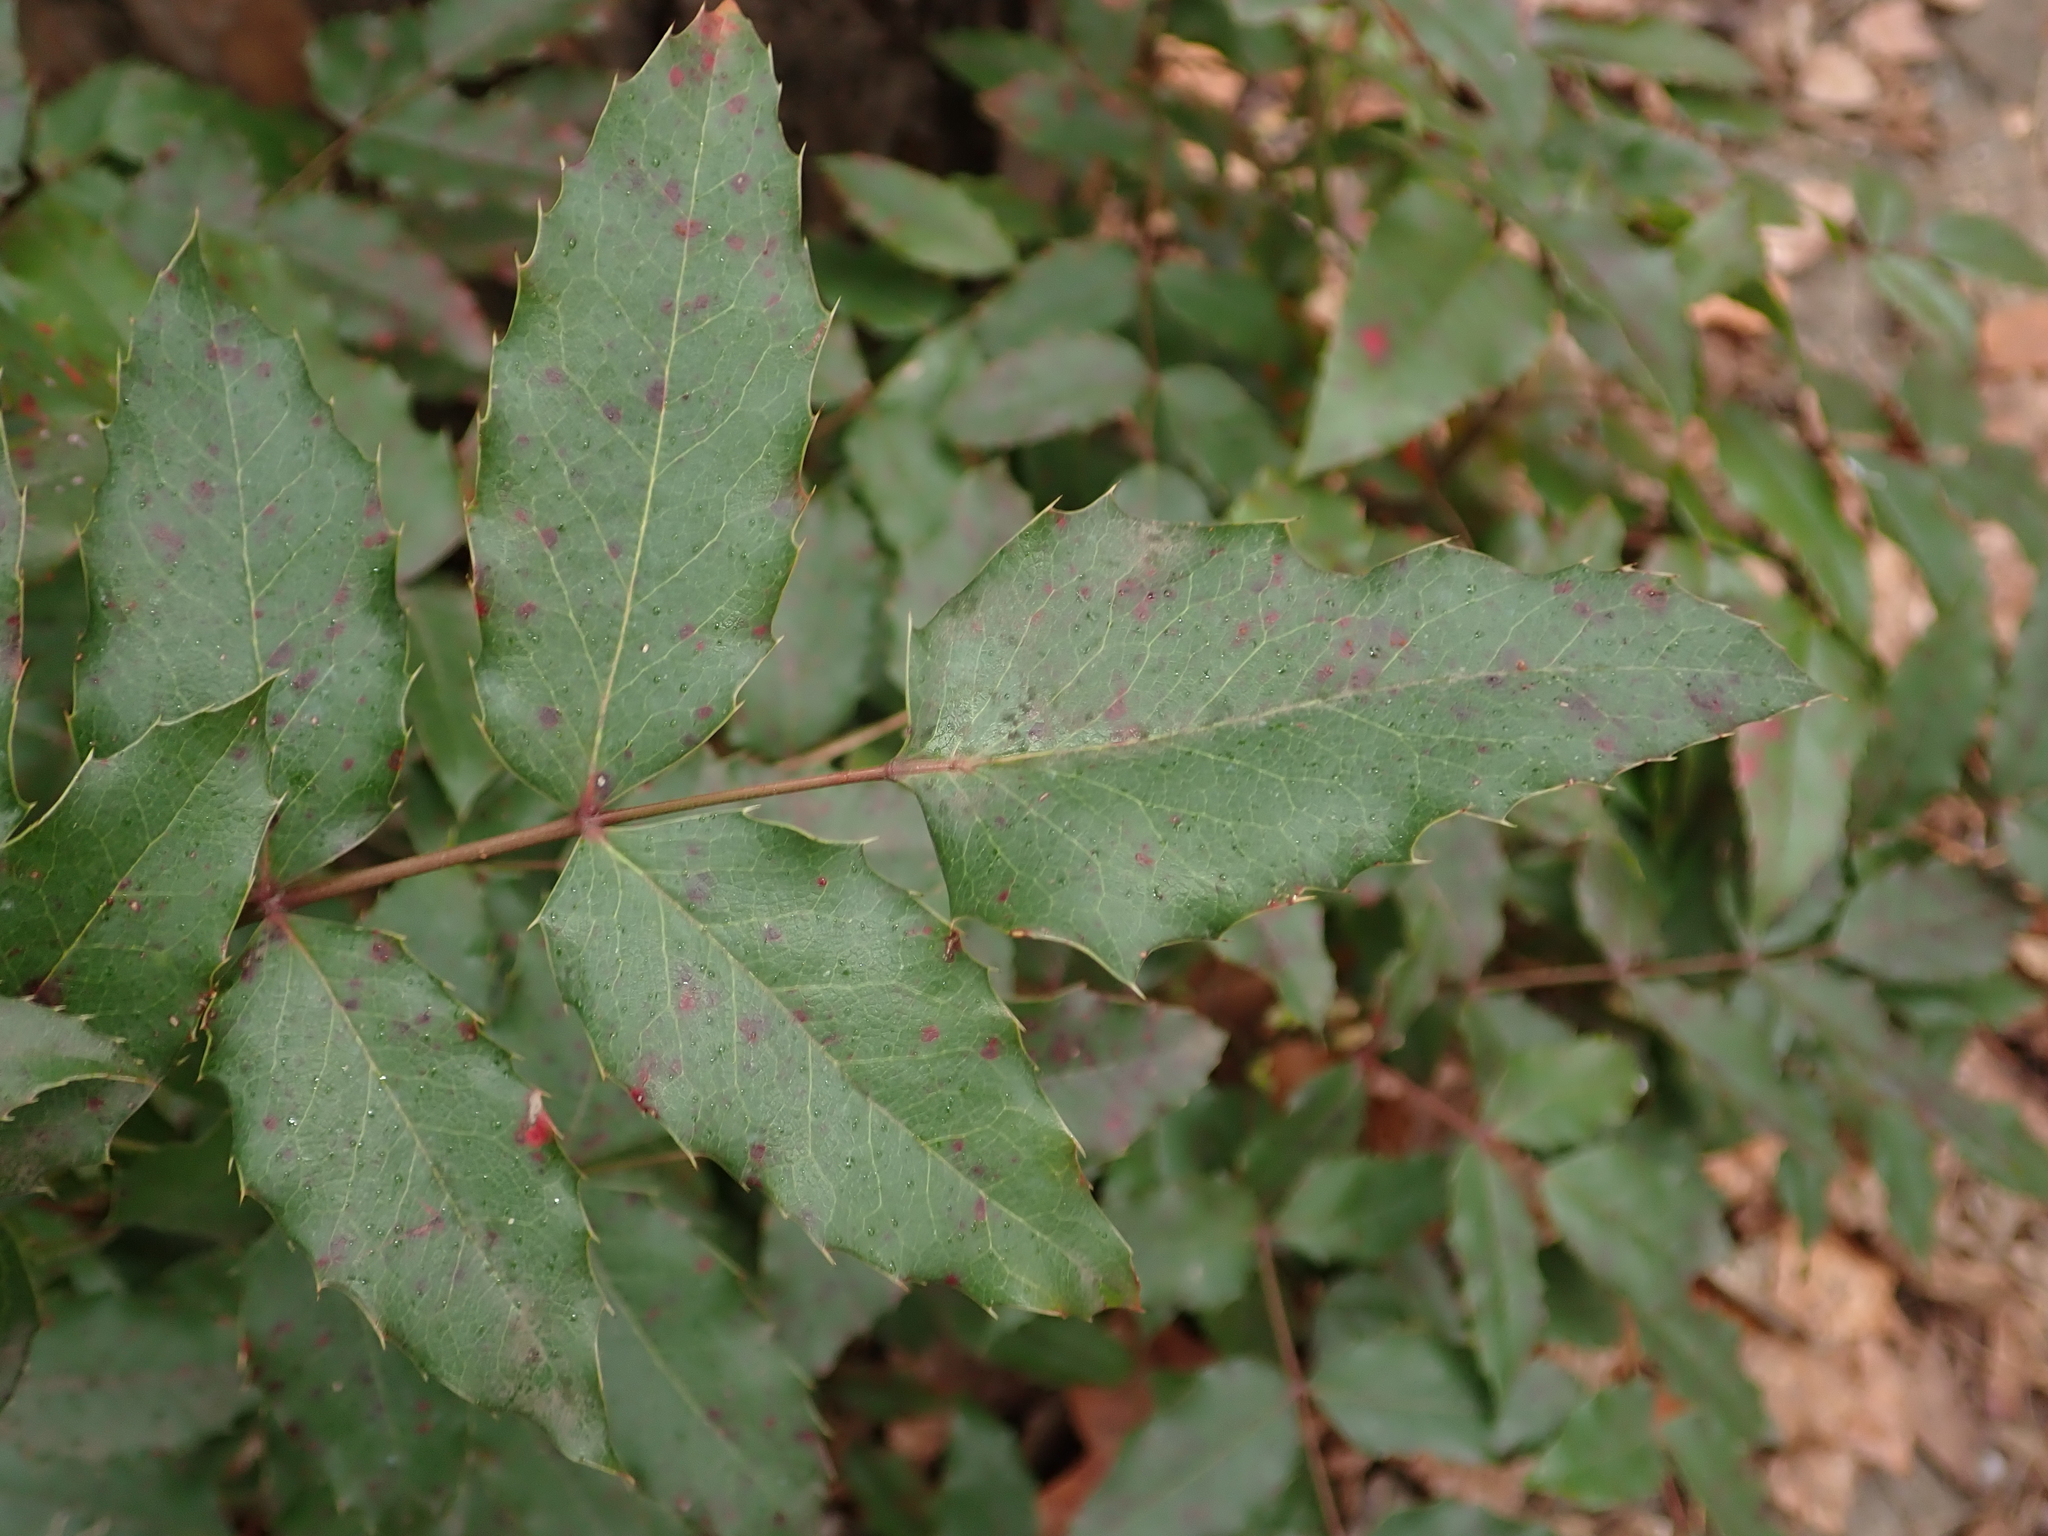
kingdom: Plantae
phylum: Tracheophyta
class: Magnoliopsida
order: Ranunculales
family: Berberidaceae
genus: Mahonia
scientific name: Mahonia aquifolium
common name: Oregon-grape
